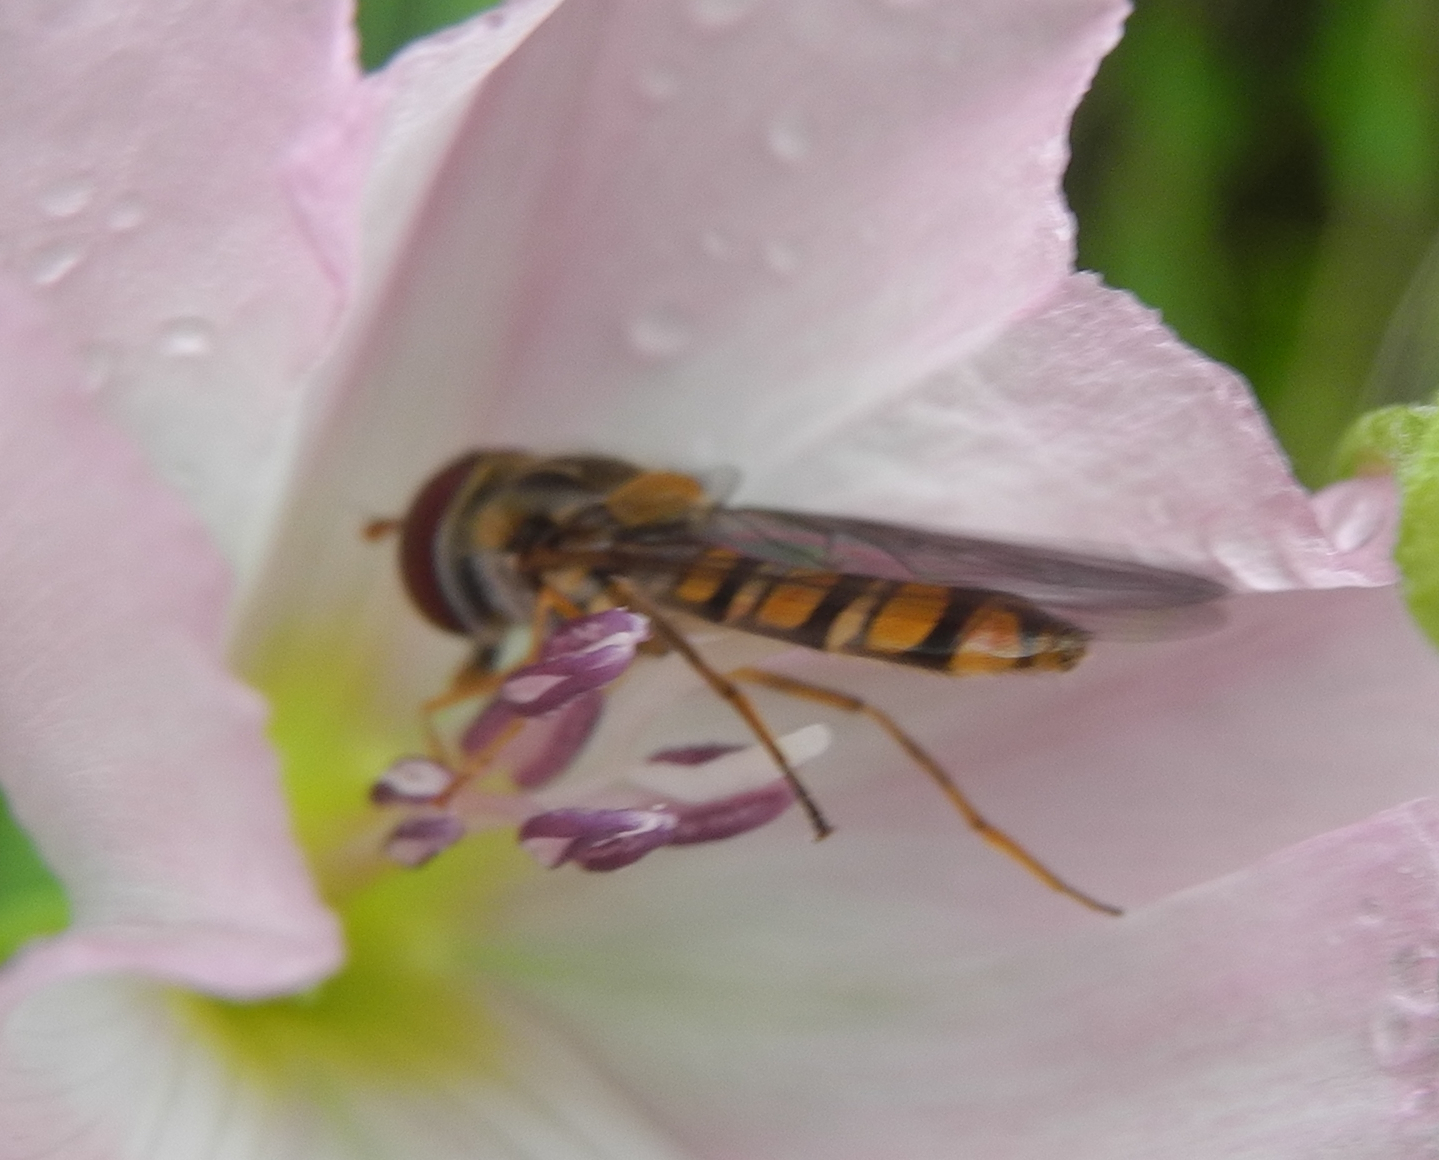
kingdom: Animalia
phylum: Arthropoda
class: Insecta
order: Diptera
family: Syrphidae
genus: Episyrphus
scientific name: Episyrphus balteatus
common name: Marmalade hoverfly
